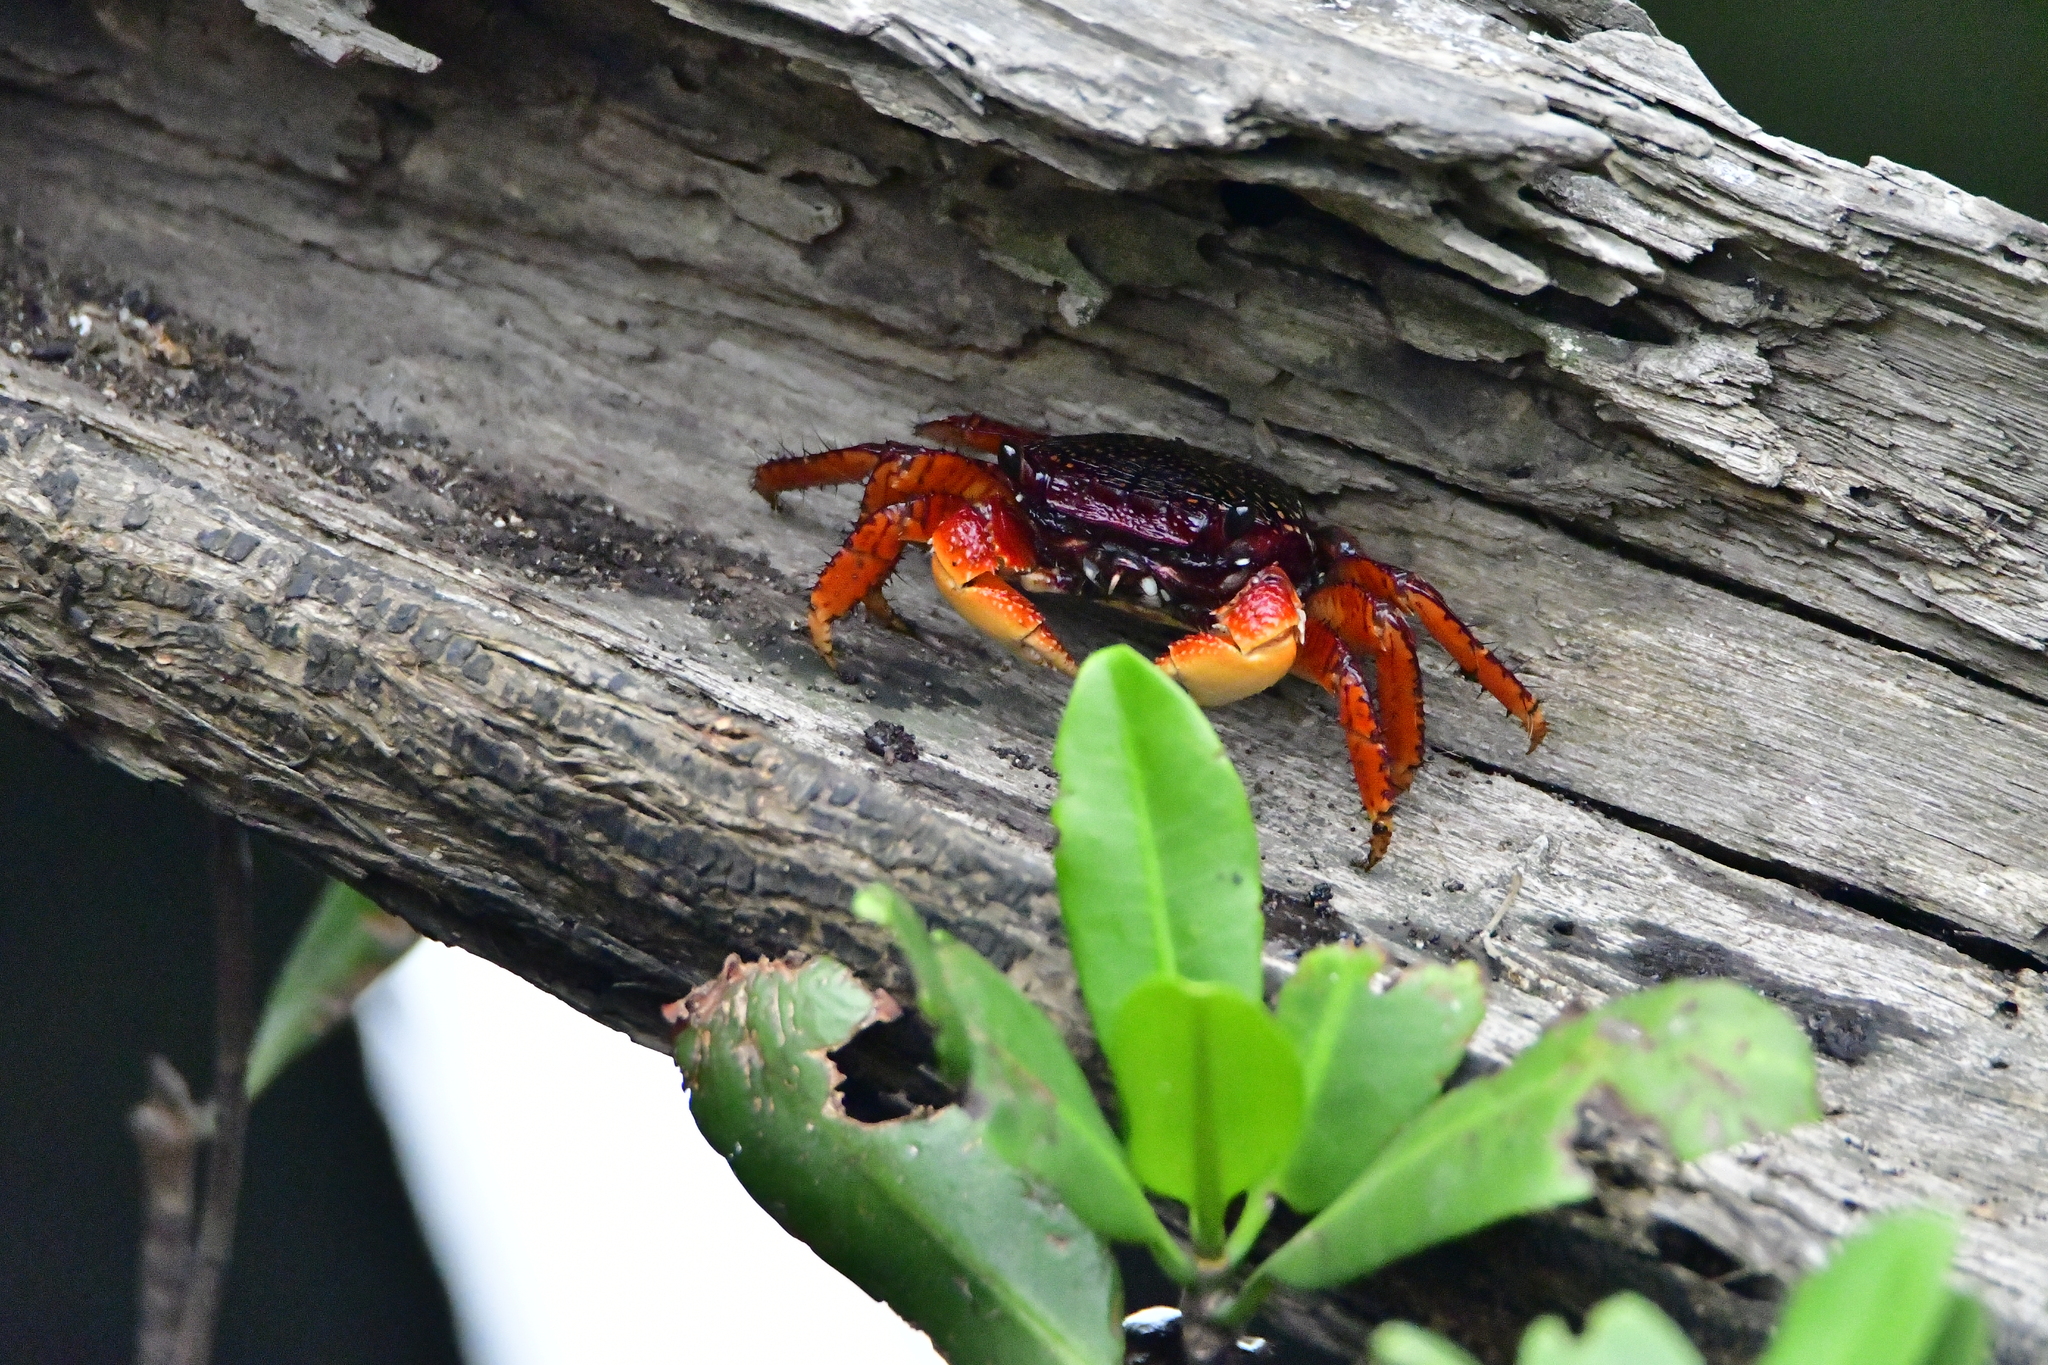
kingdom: Animalia
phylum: Arthropoda
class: Malacostraca
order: Decapoda
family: Grapsidae
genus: Goniopsis
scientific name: Goniopsis pulchra
